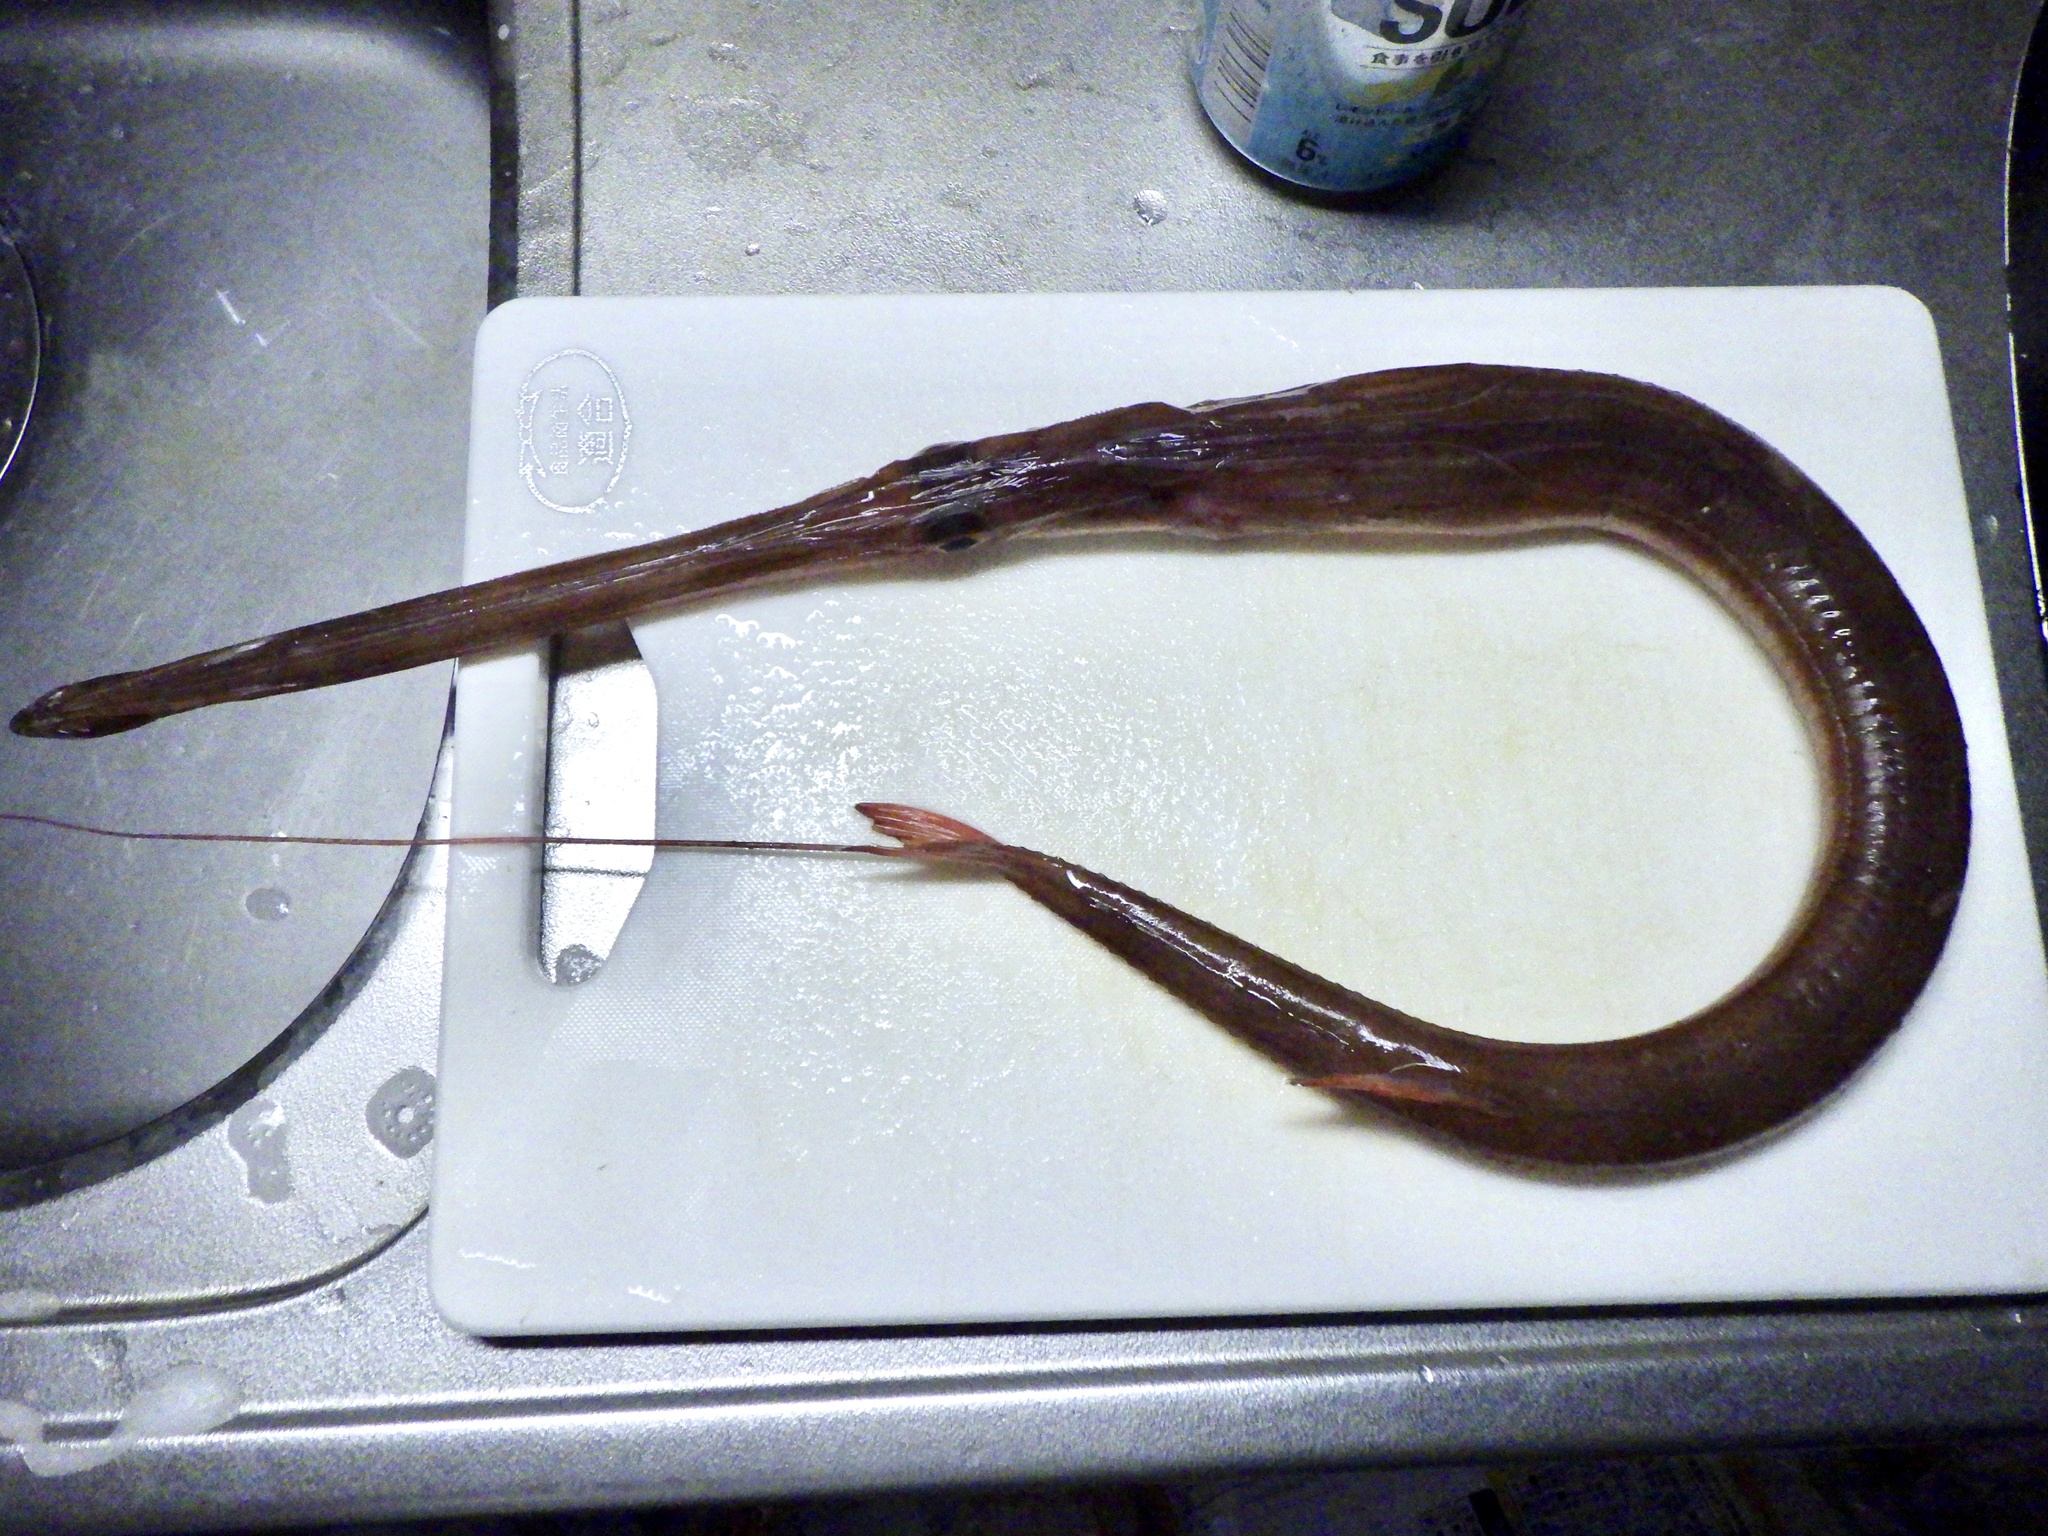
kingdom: Animalia
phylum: Chordata
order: Syngnathiformes
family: Fistulariidae
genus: Fistularia
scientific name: Fistularia petimba
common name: Red cornetfish
